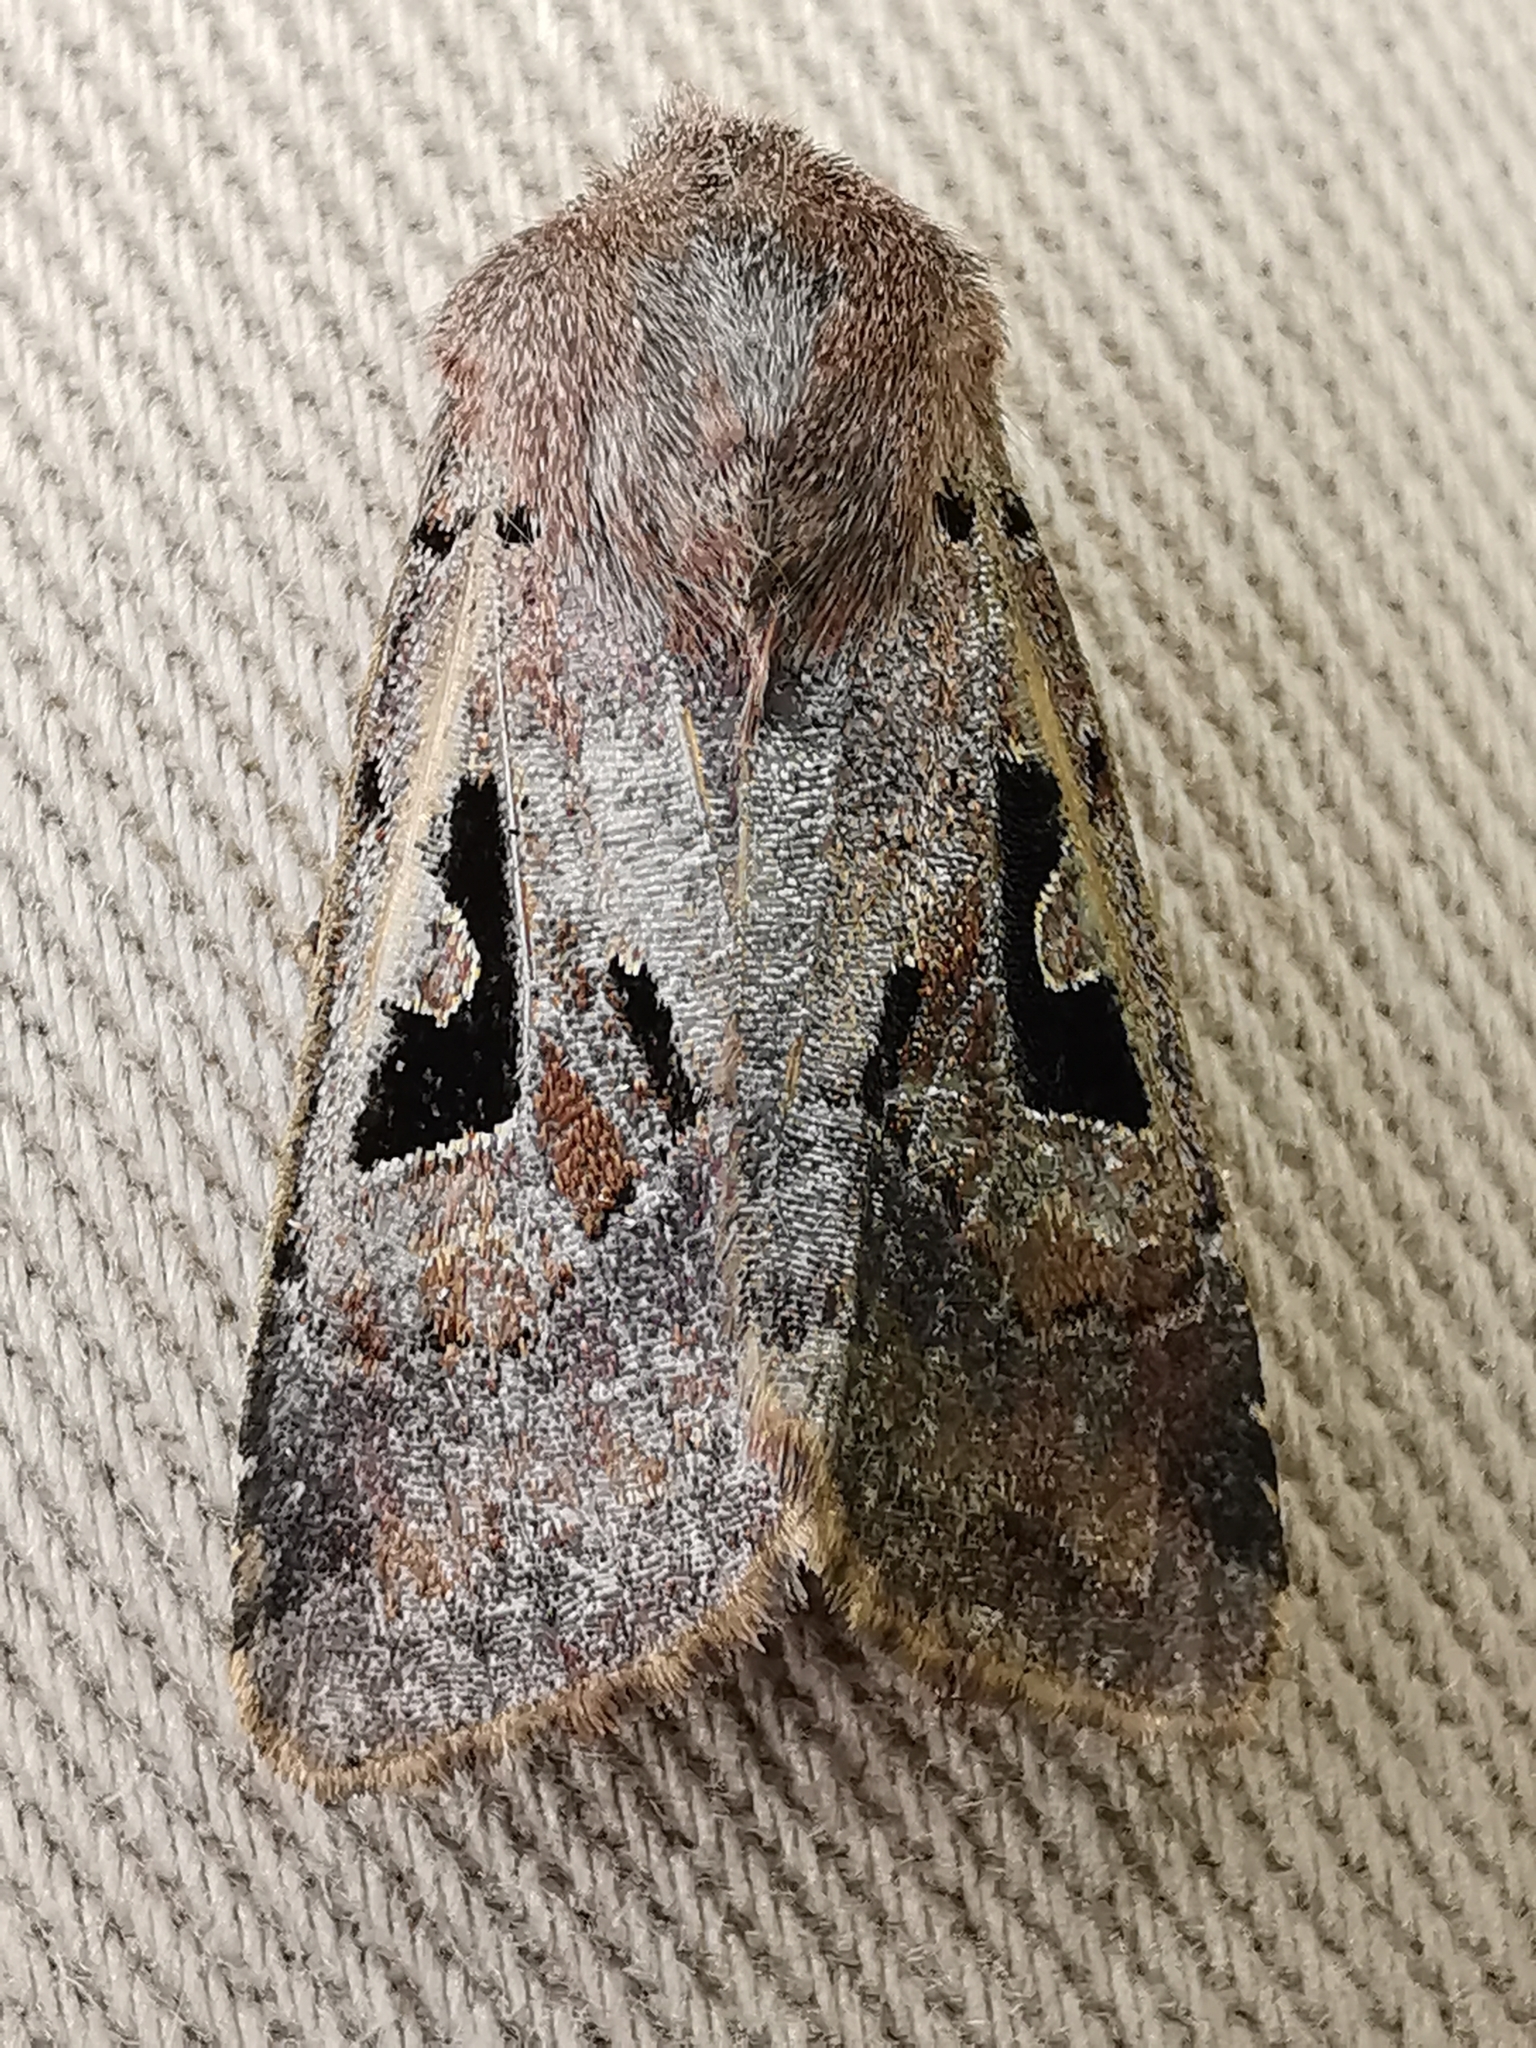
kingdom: Animalia
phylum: Arthropoda
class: Insecta
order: Lepidoptera
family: Noctuidae
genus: Orthosia
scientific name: Orthosia gothica
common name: Hebrew character
